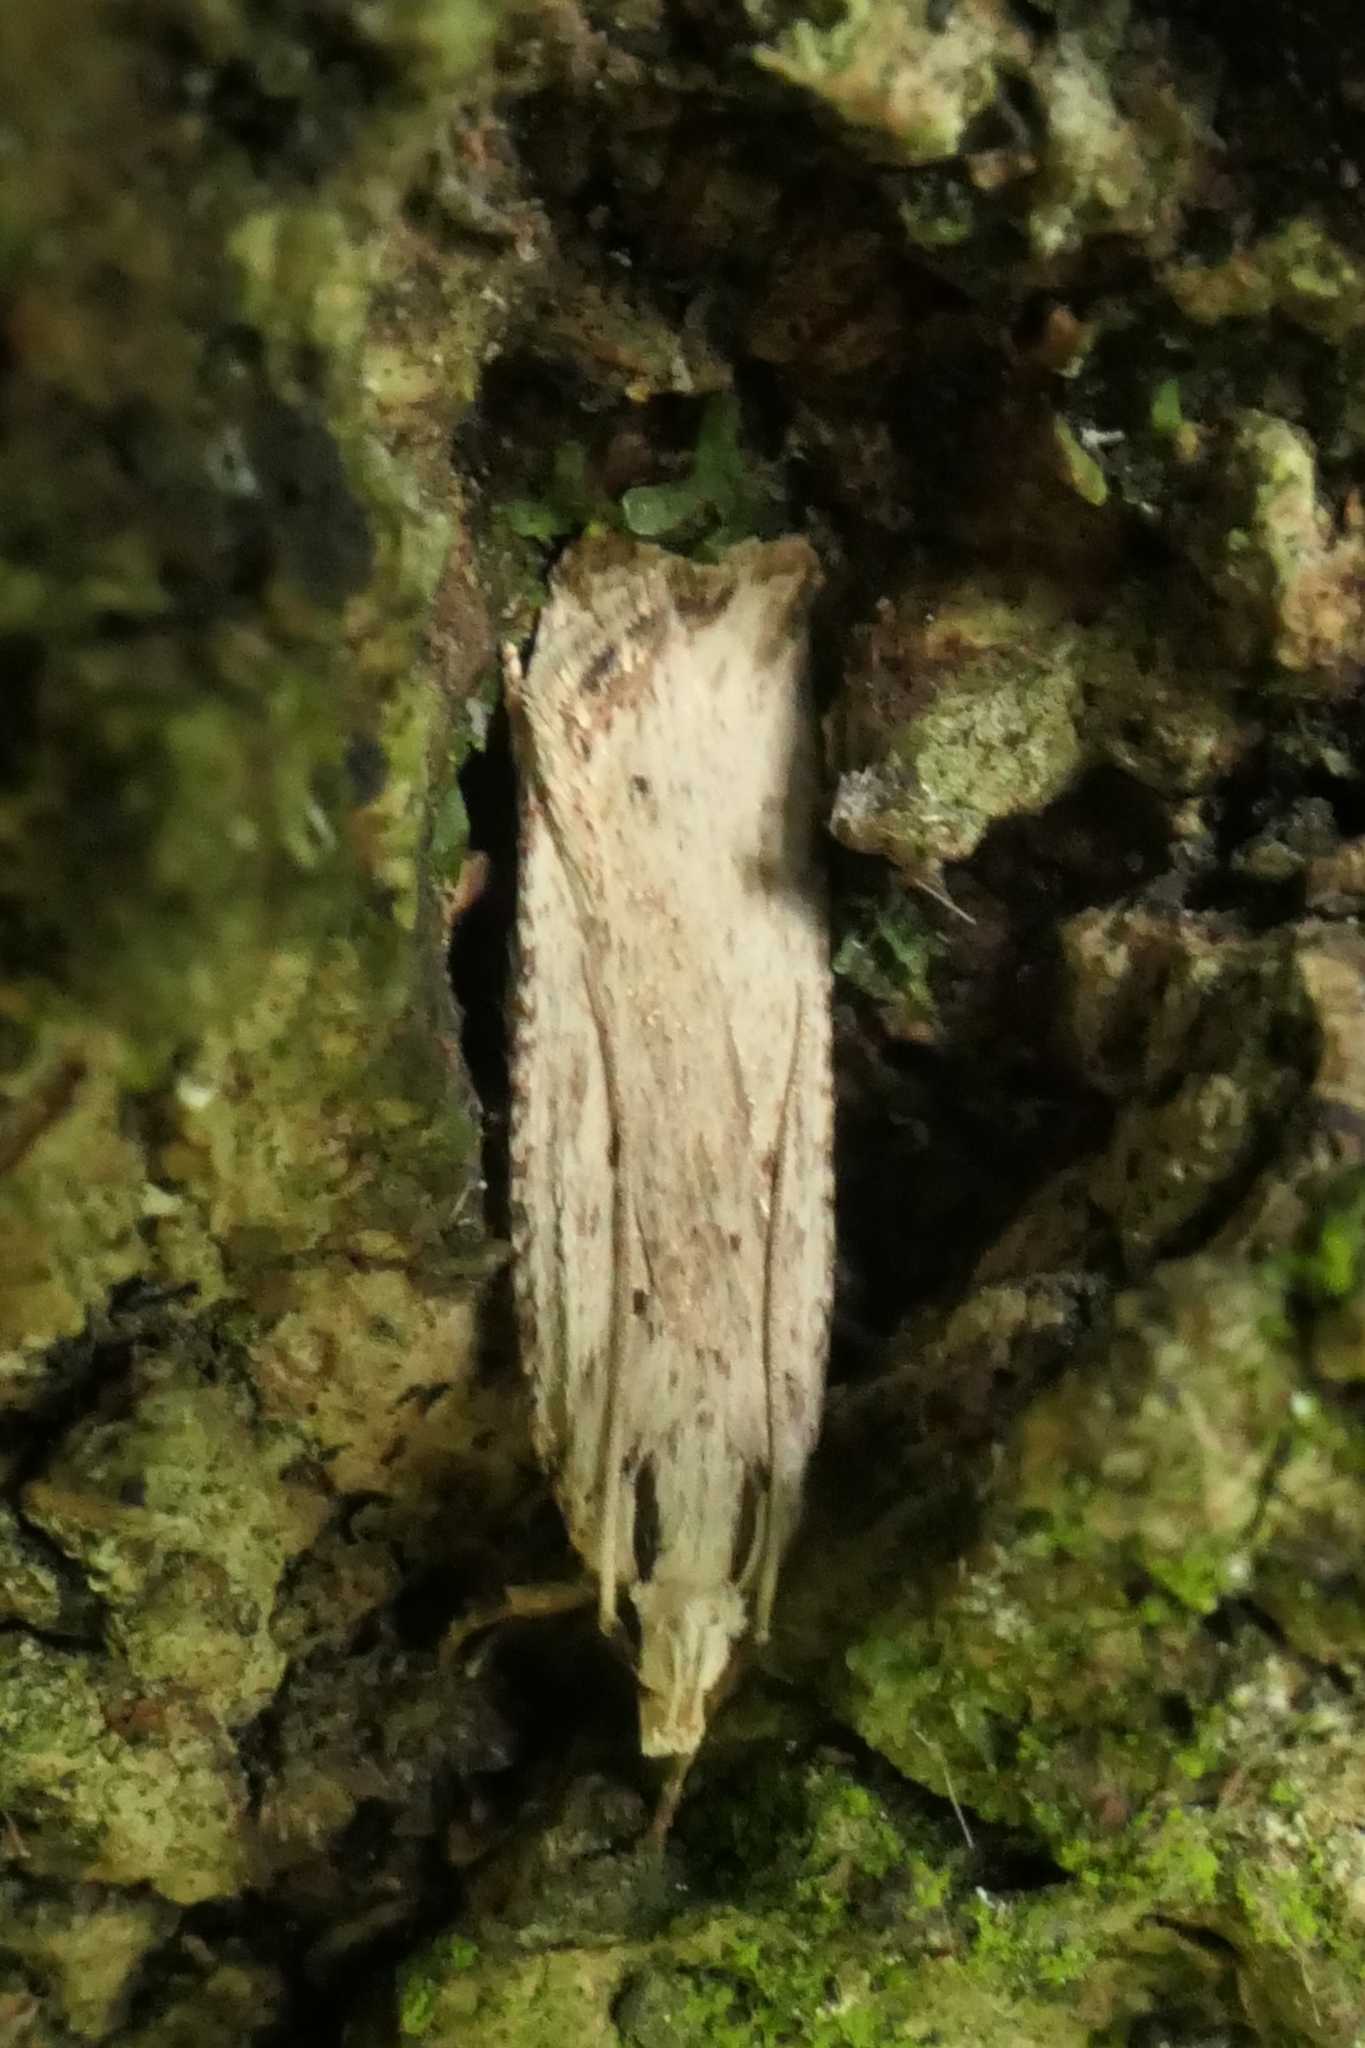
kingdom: Animalia
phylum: Arthropoda
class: Insecta
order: Lepidoptera
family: Gelechiidae
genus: Anisoplaca
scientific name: Anisoplaca ptyoptera
